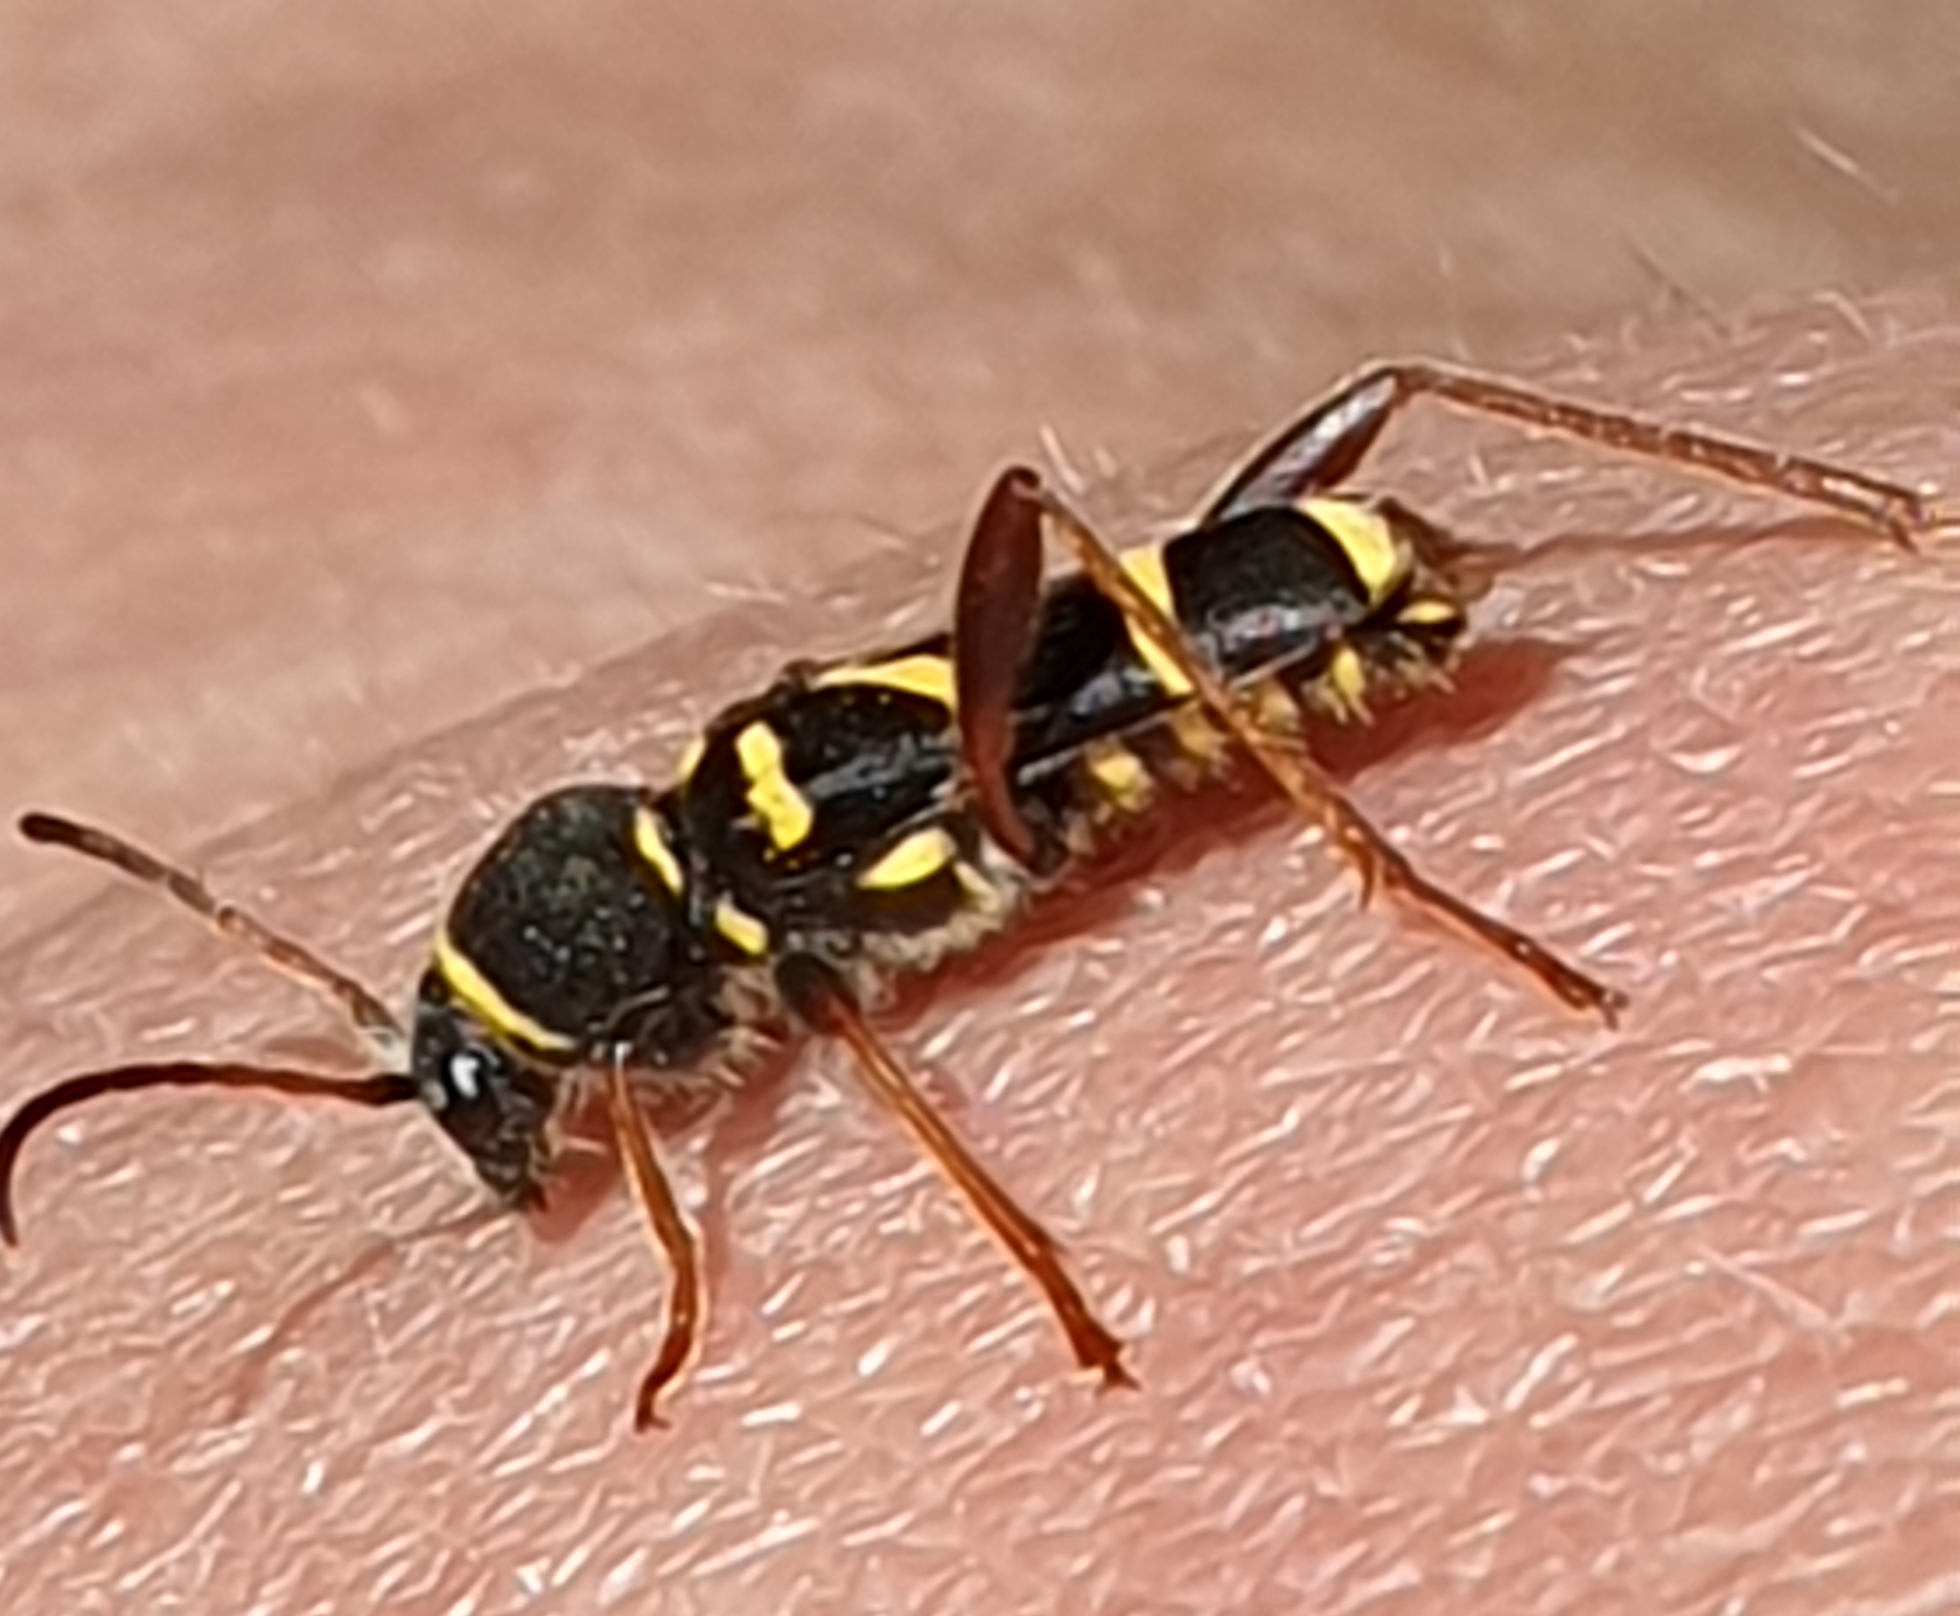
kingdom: Animalia
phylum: Arthropoda
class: Insecta
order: Coleoptera
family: Cerambycidae
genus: Clytus
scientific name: Clytus arietis
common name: Wasp beetle
